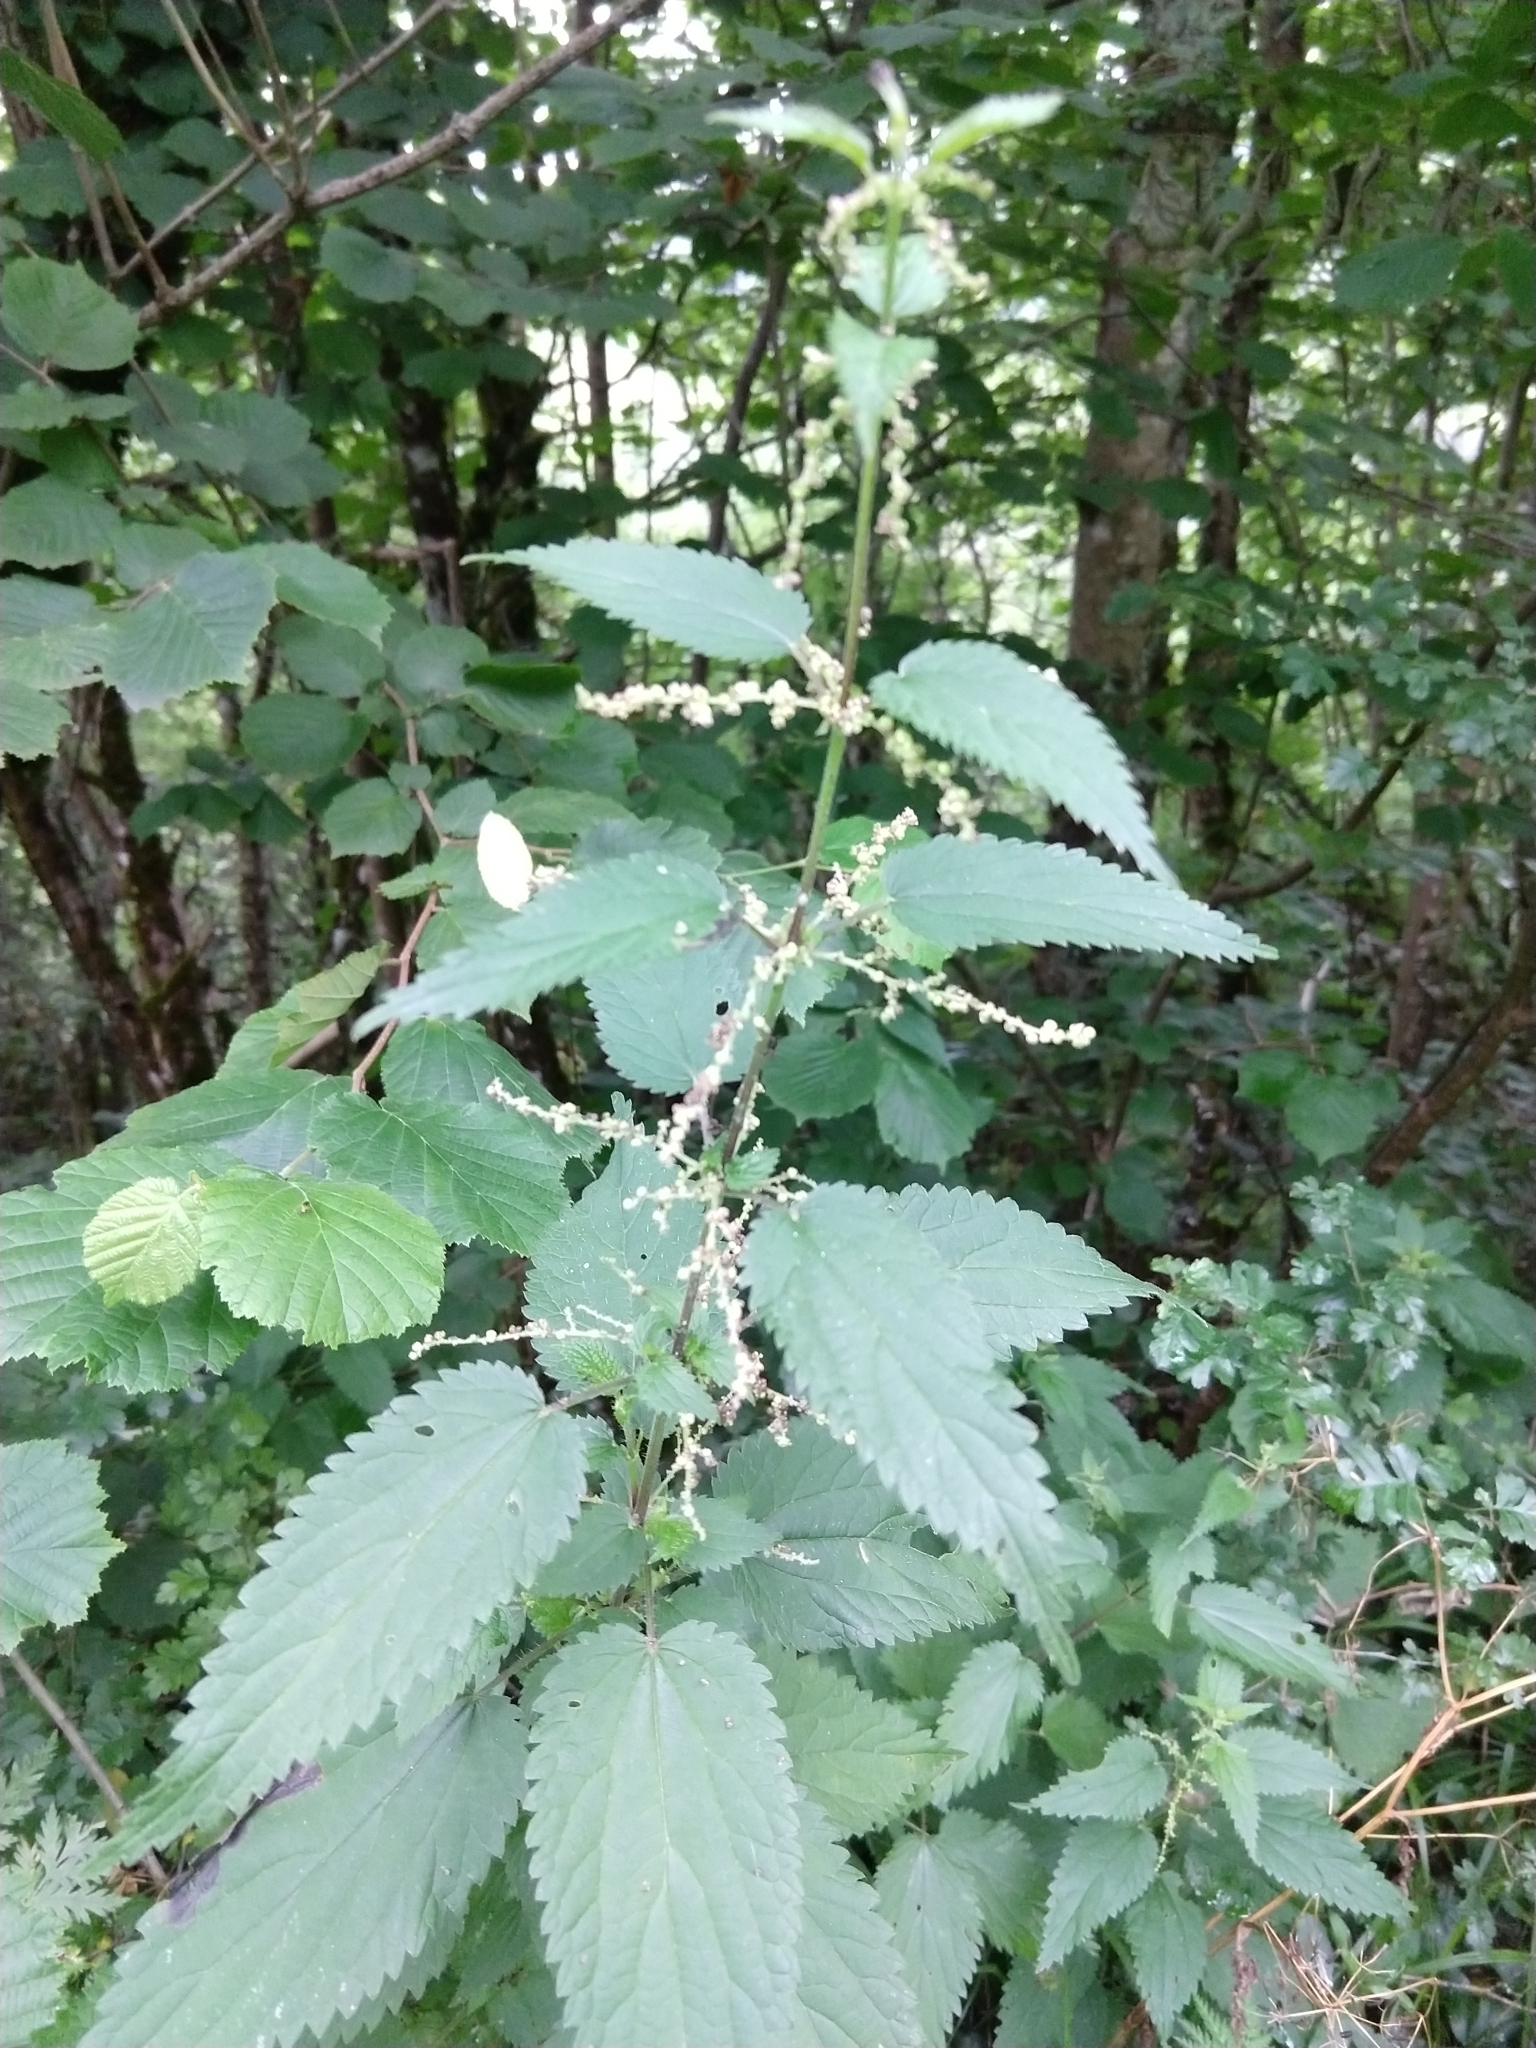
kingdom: Plantae
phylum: Tracheophyta
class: Magnoliopsida
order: Rosales
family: Urticaceae
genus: Urtica
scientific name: Urtica dioica
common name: Common nettle
